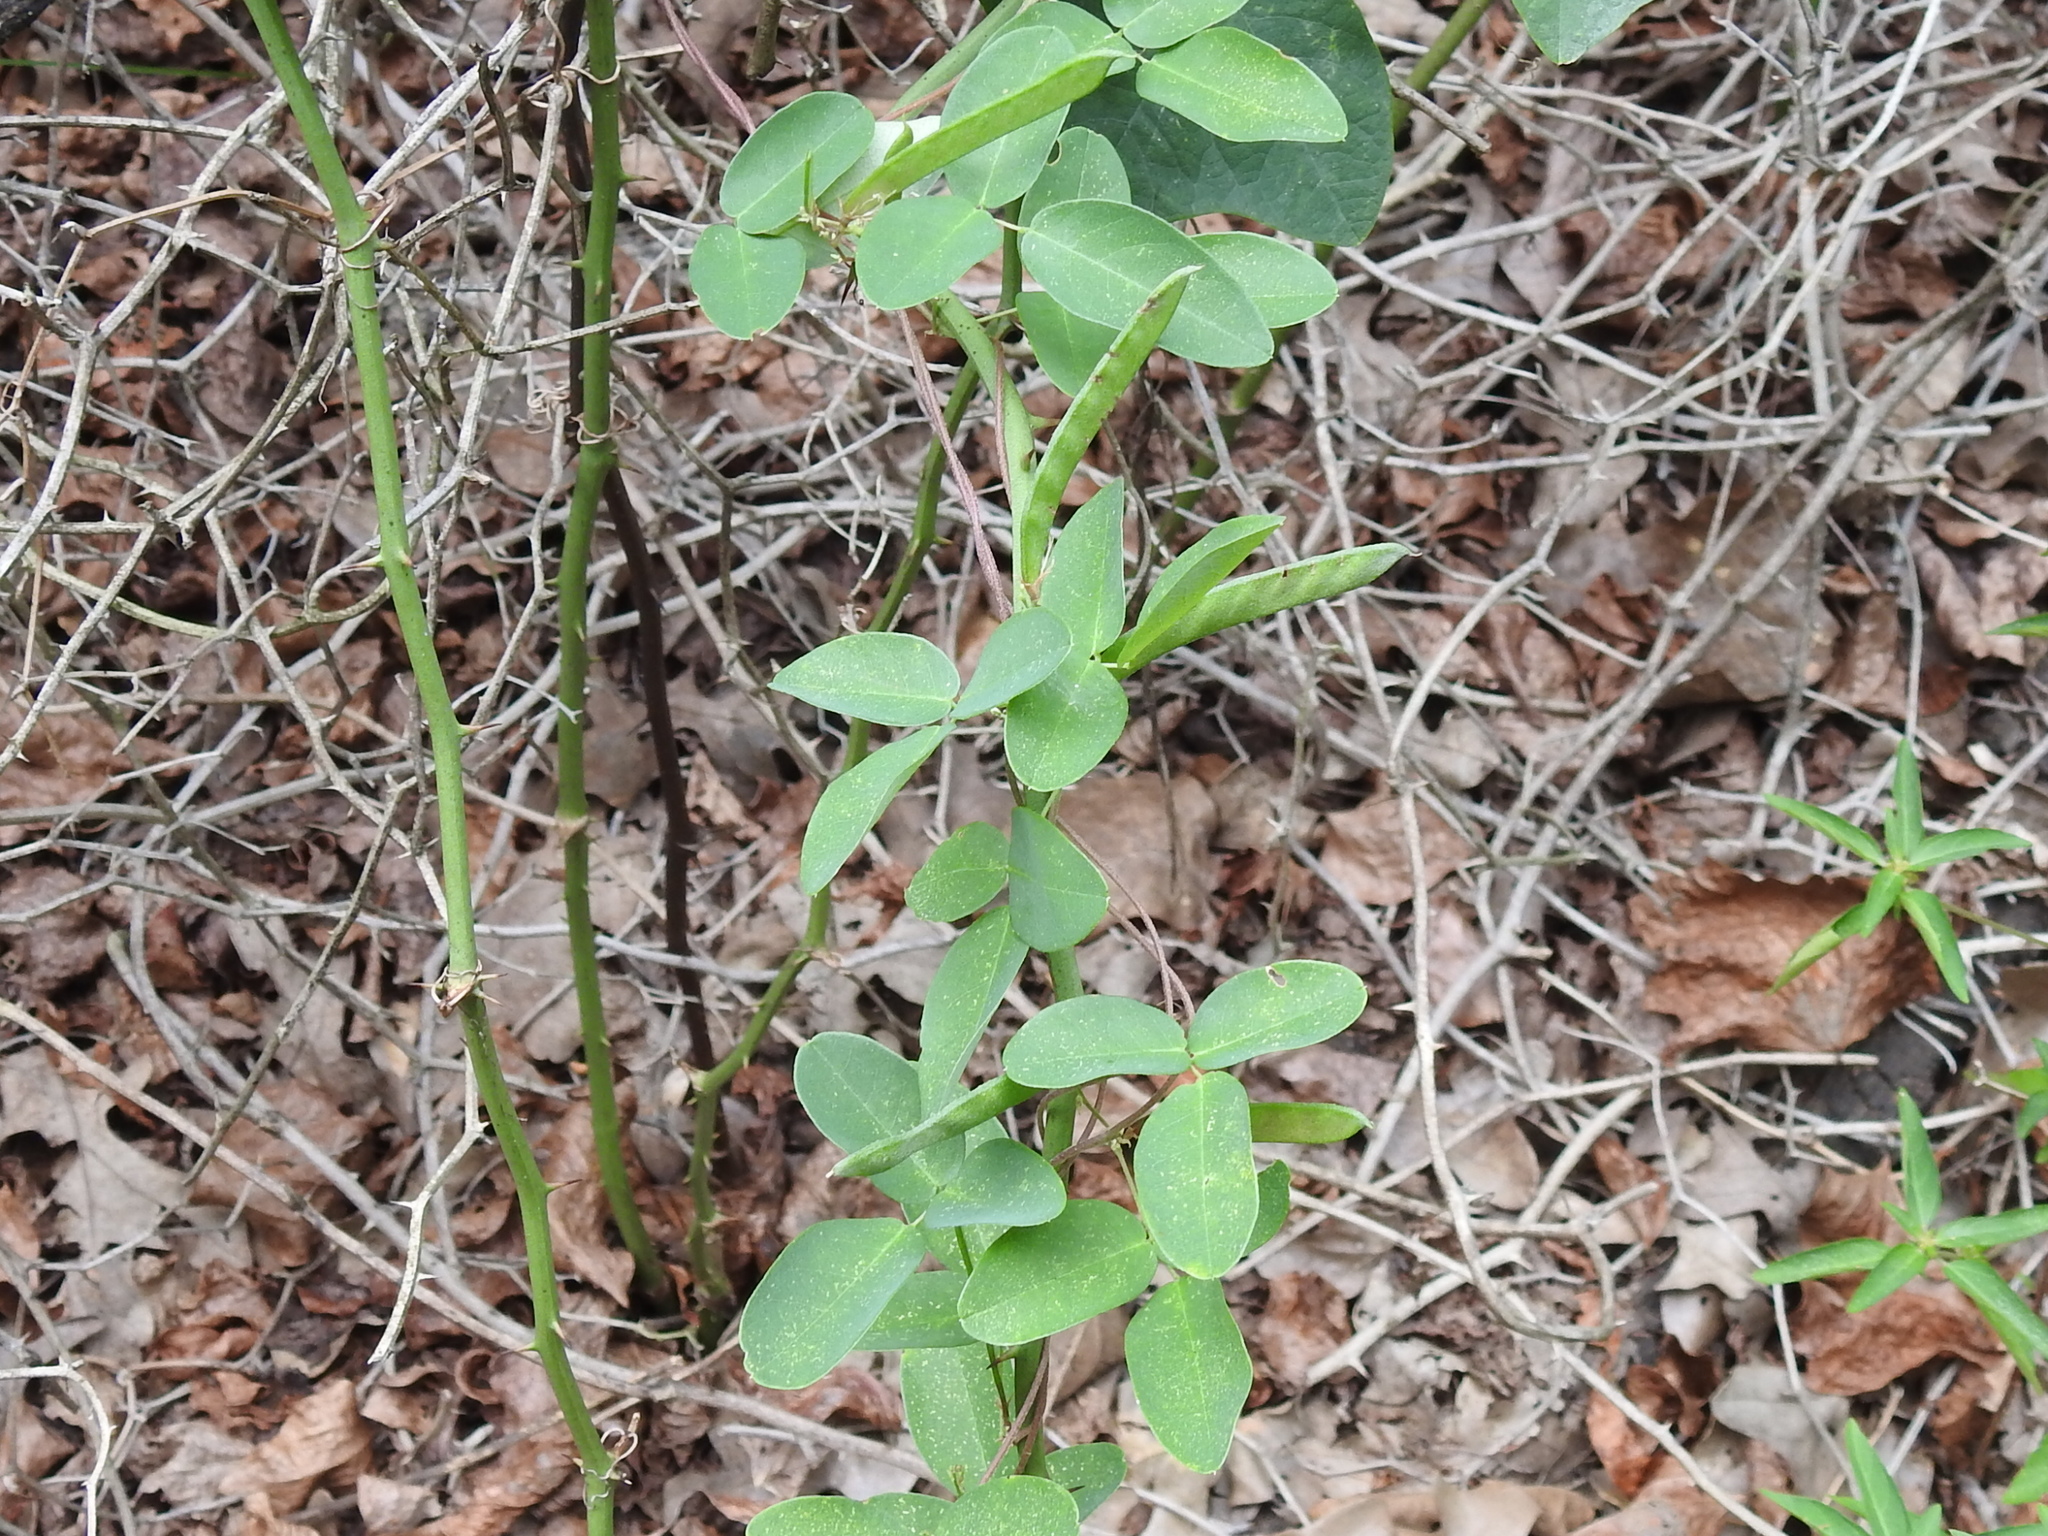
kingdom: Plantae
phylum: Tracheophyta
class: Magnoliopsida
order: Fabales
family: Fabaceae
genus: Galactia
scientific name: Galactia regularis
